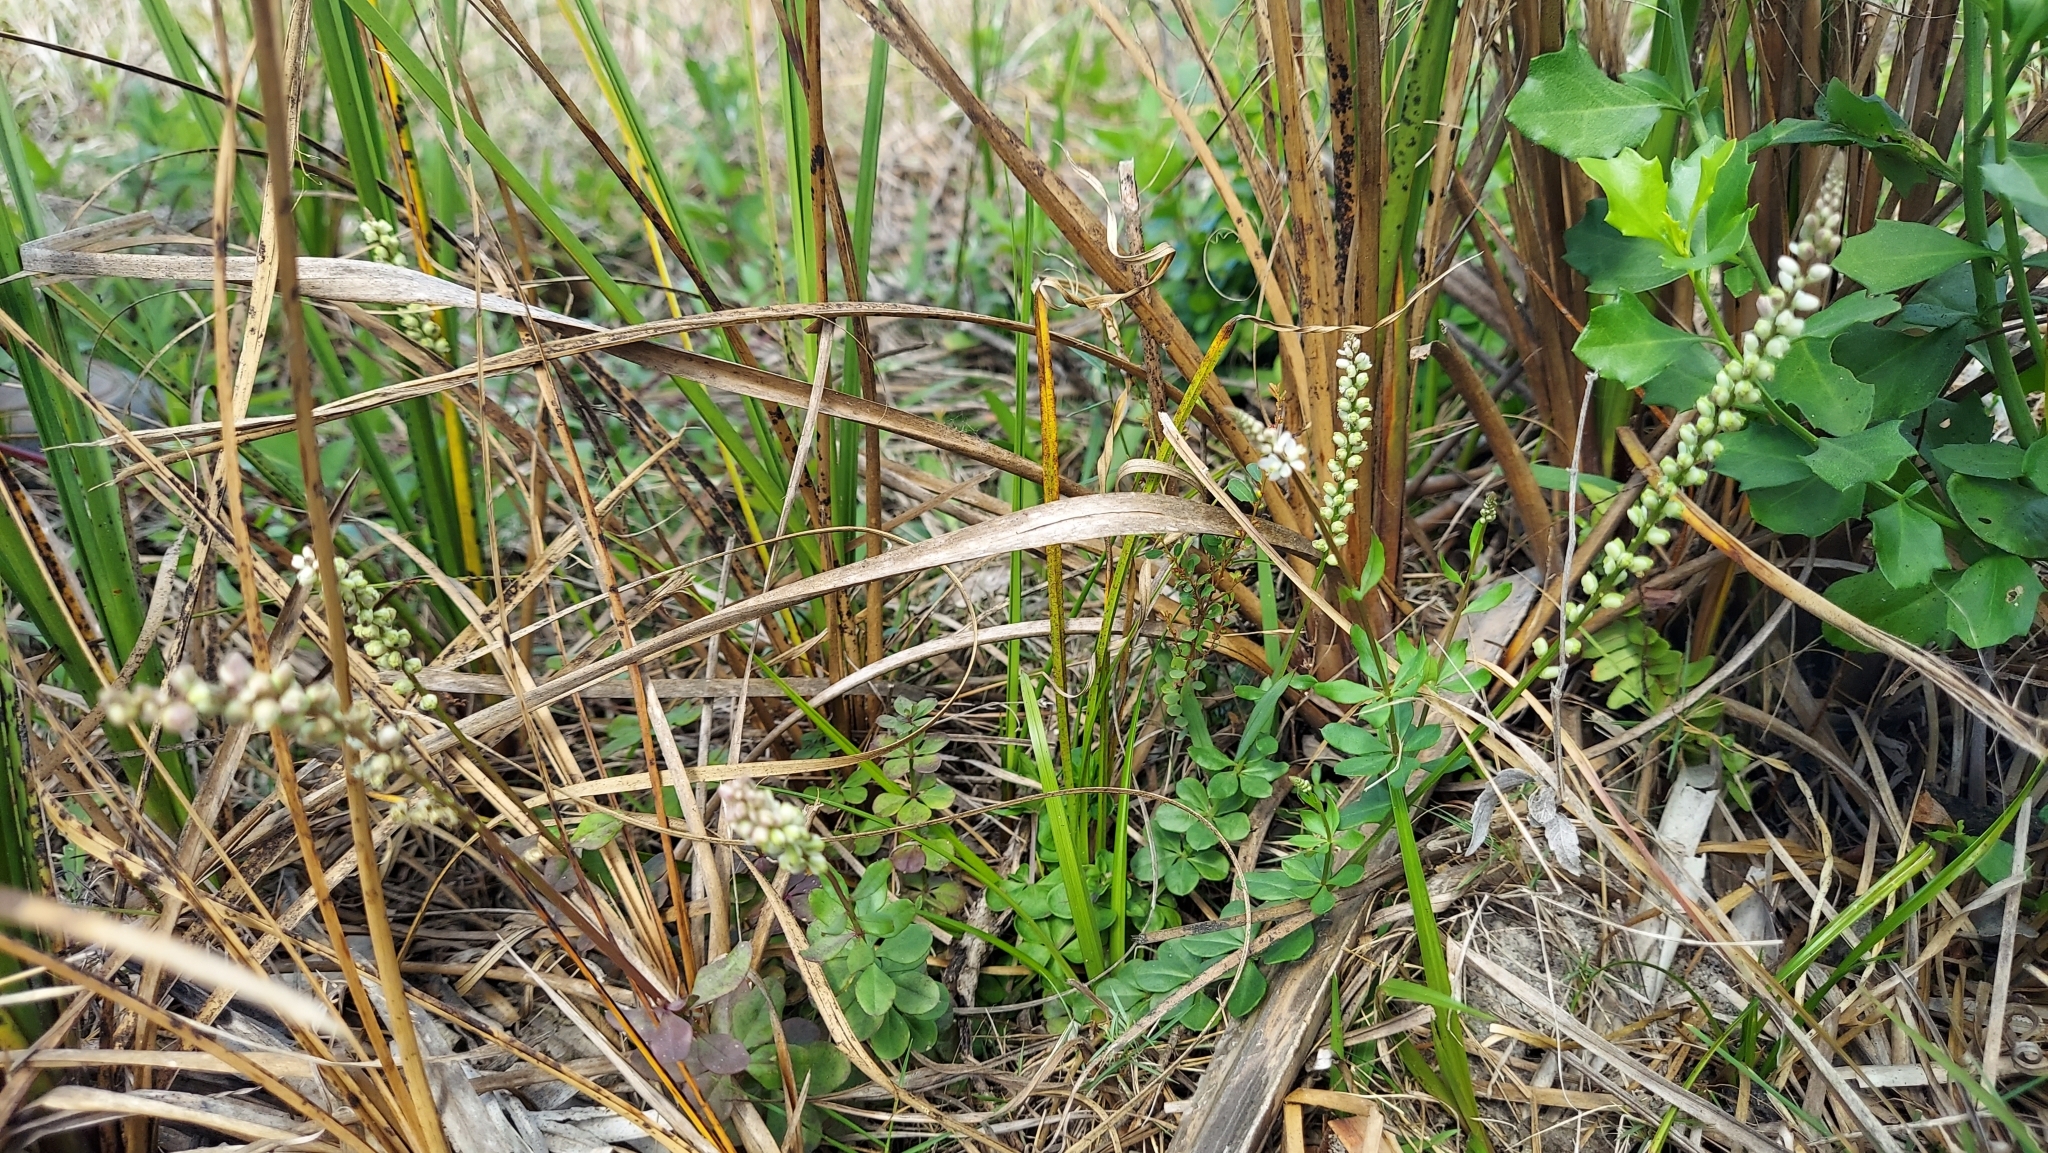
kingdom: Plantae
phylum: Tracheophyta
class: Magnoliopsida
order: Fabales
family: Polygalaceae
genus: Polygala
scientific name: Polygala boykinii
